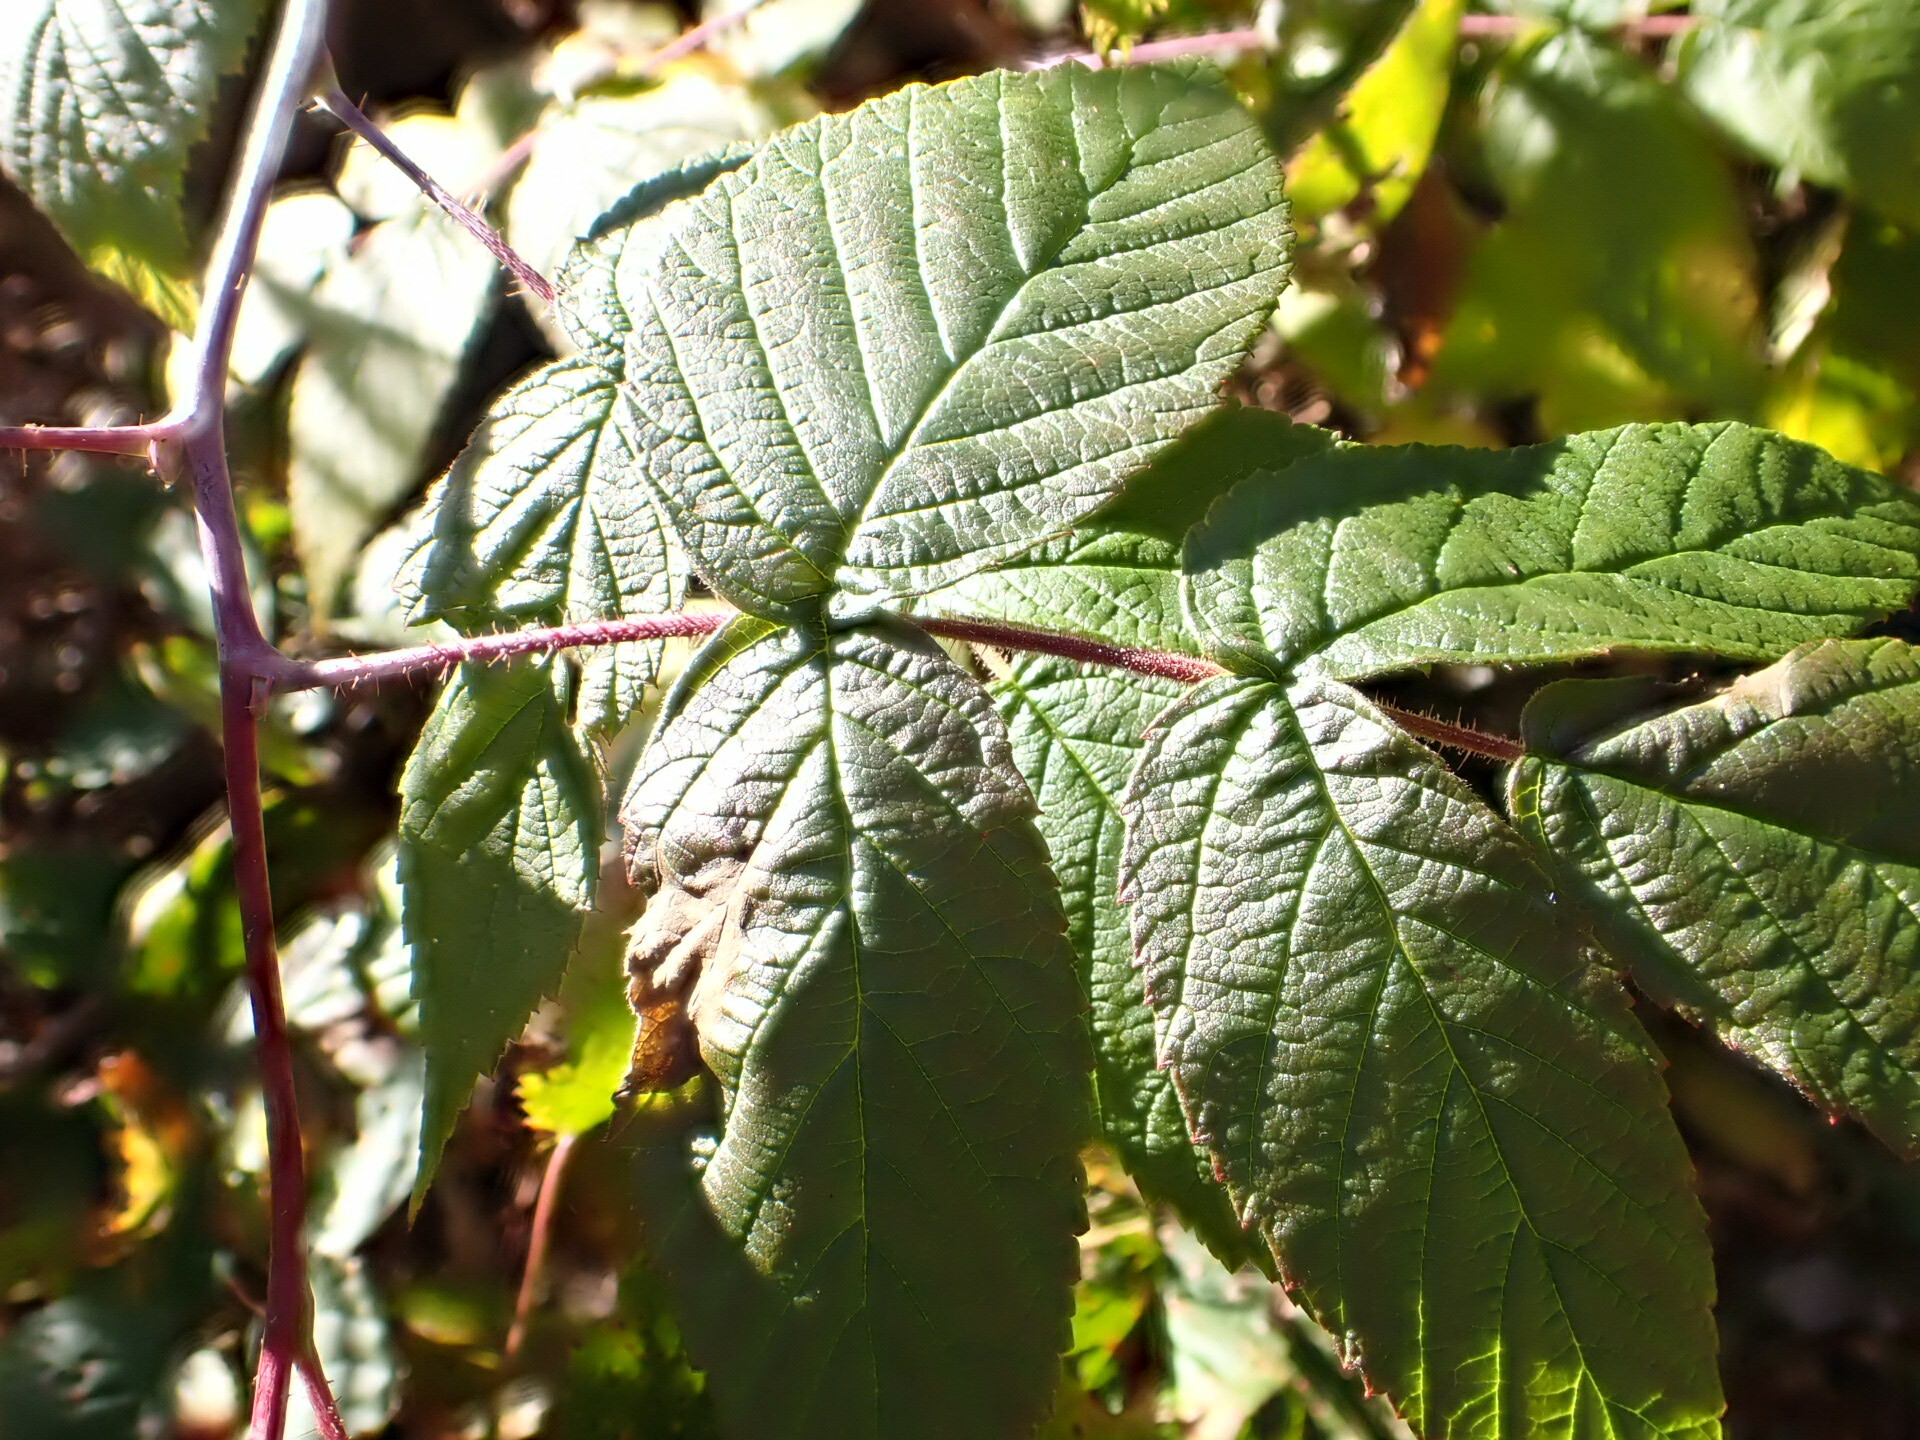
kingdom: Plantae
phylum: Tracheophyta
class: Magnoliopsida
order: Rosales
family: Rosaceae
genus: Rubus
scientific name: Rubus idaeus
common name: Raspberry
